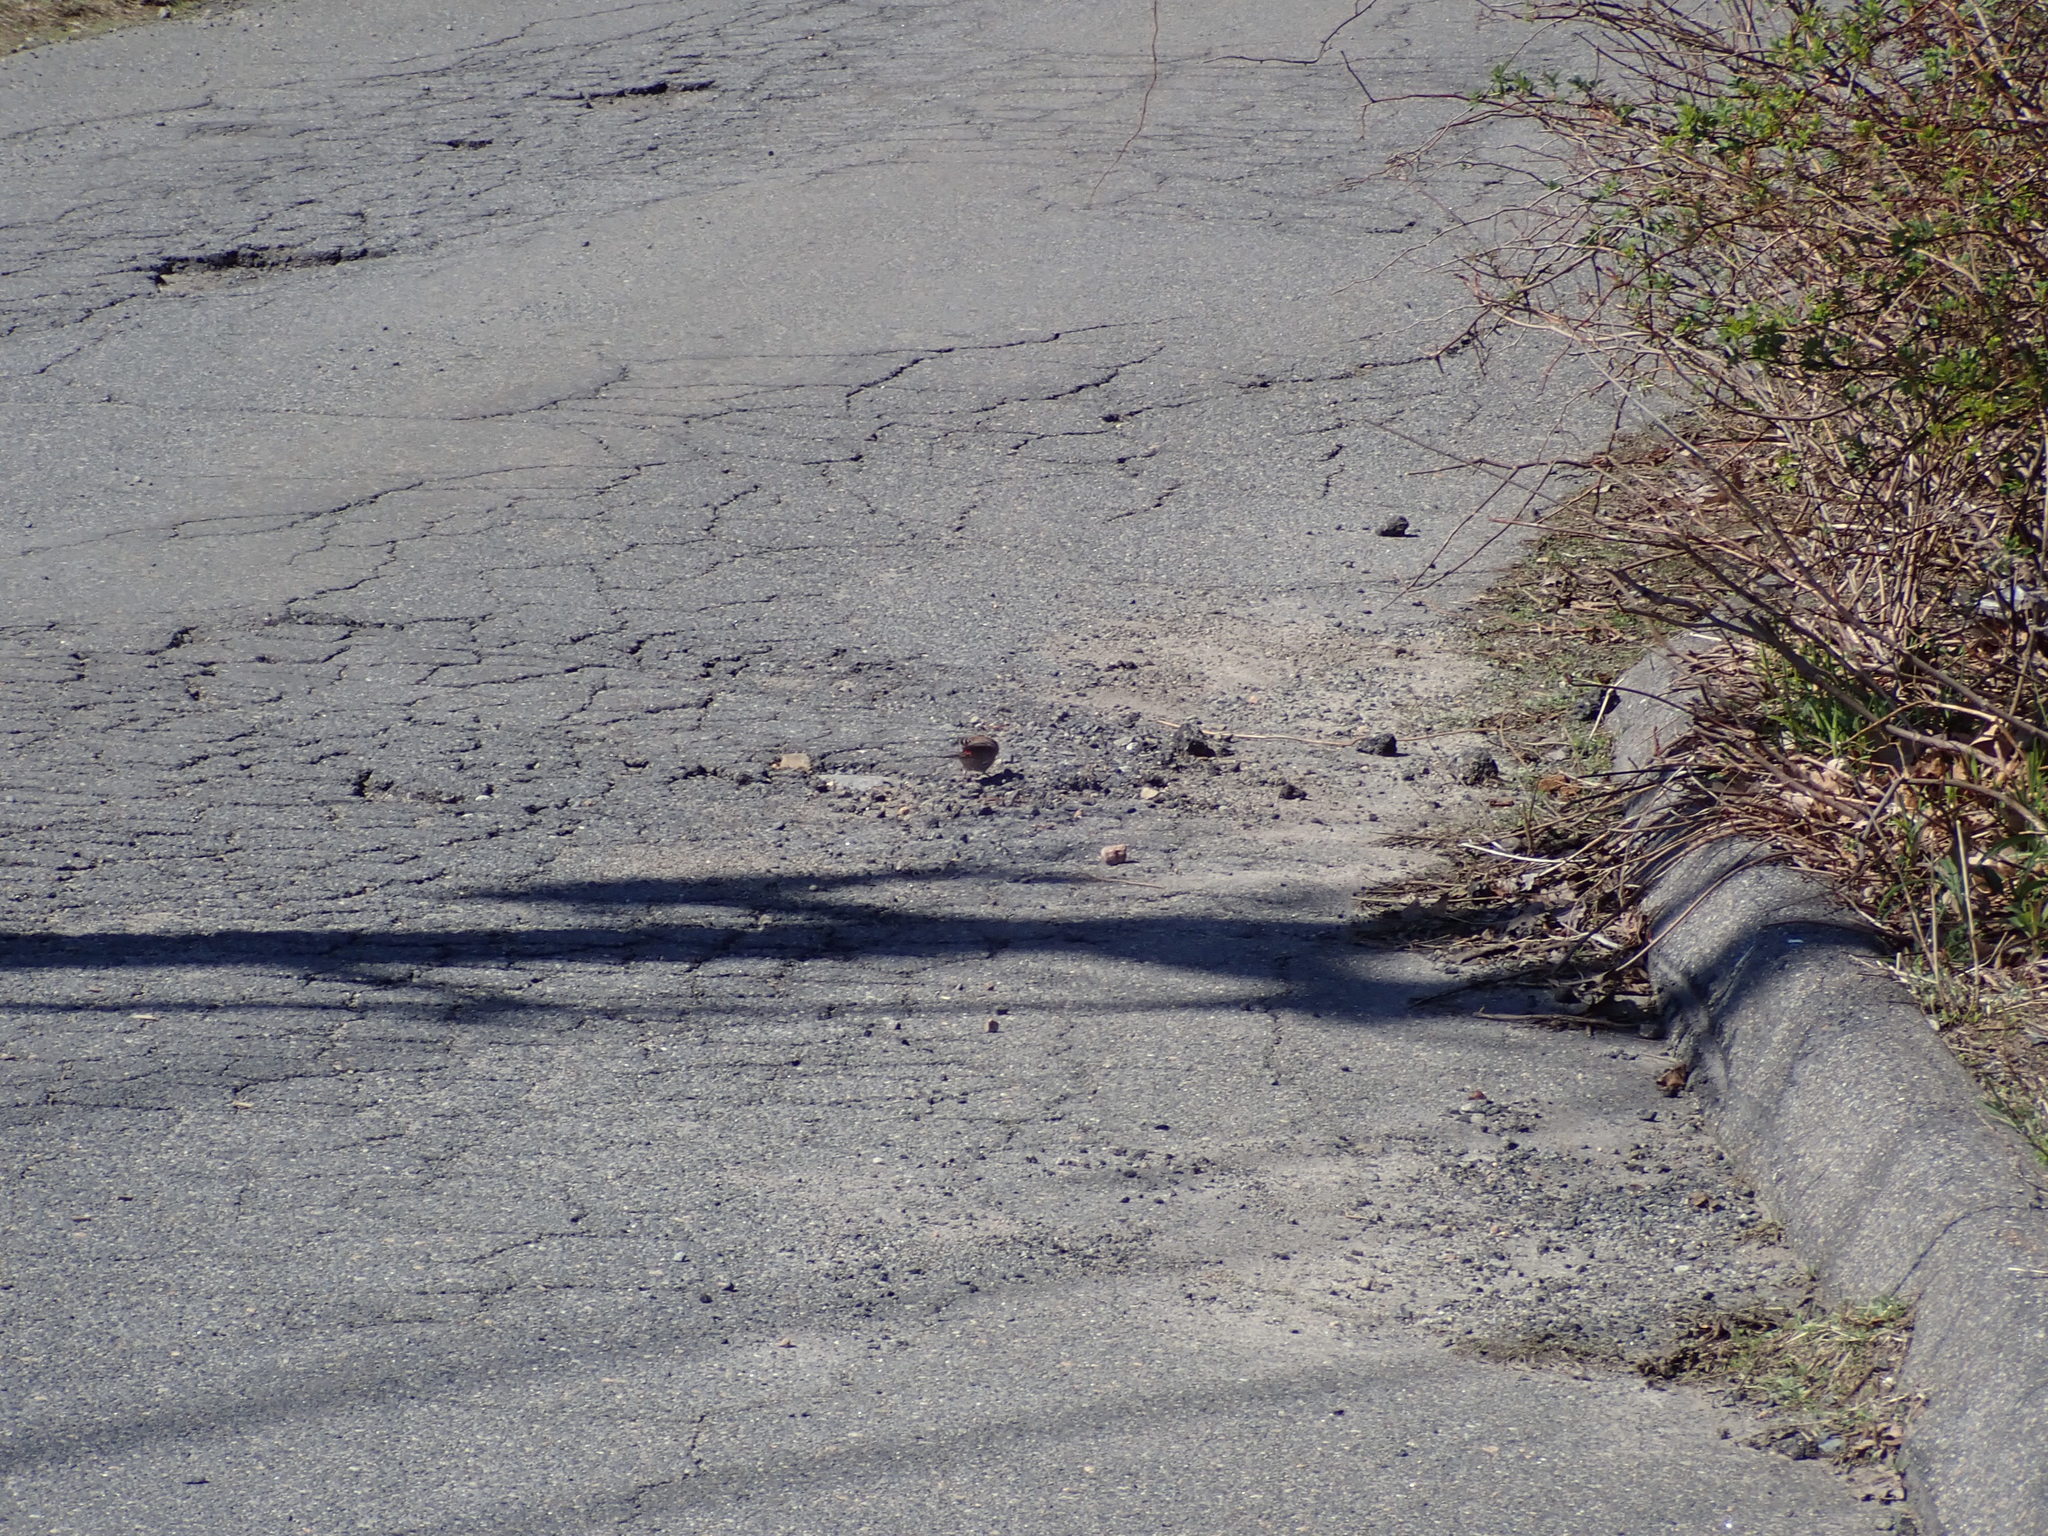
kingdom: Animalia
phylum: Chordata
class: Aves
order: Passeriformes
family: Fringillidae
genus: Haemorhous
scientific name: Haemorhous mexicanus
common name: House finch
